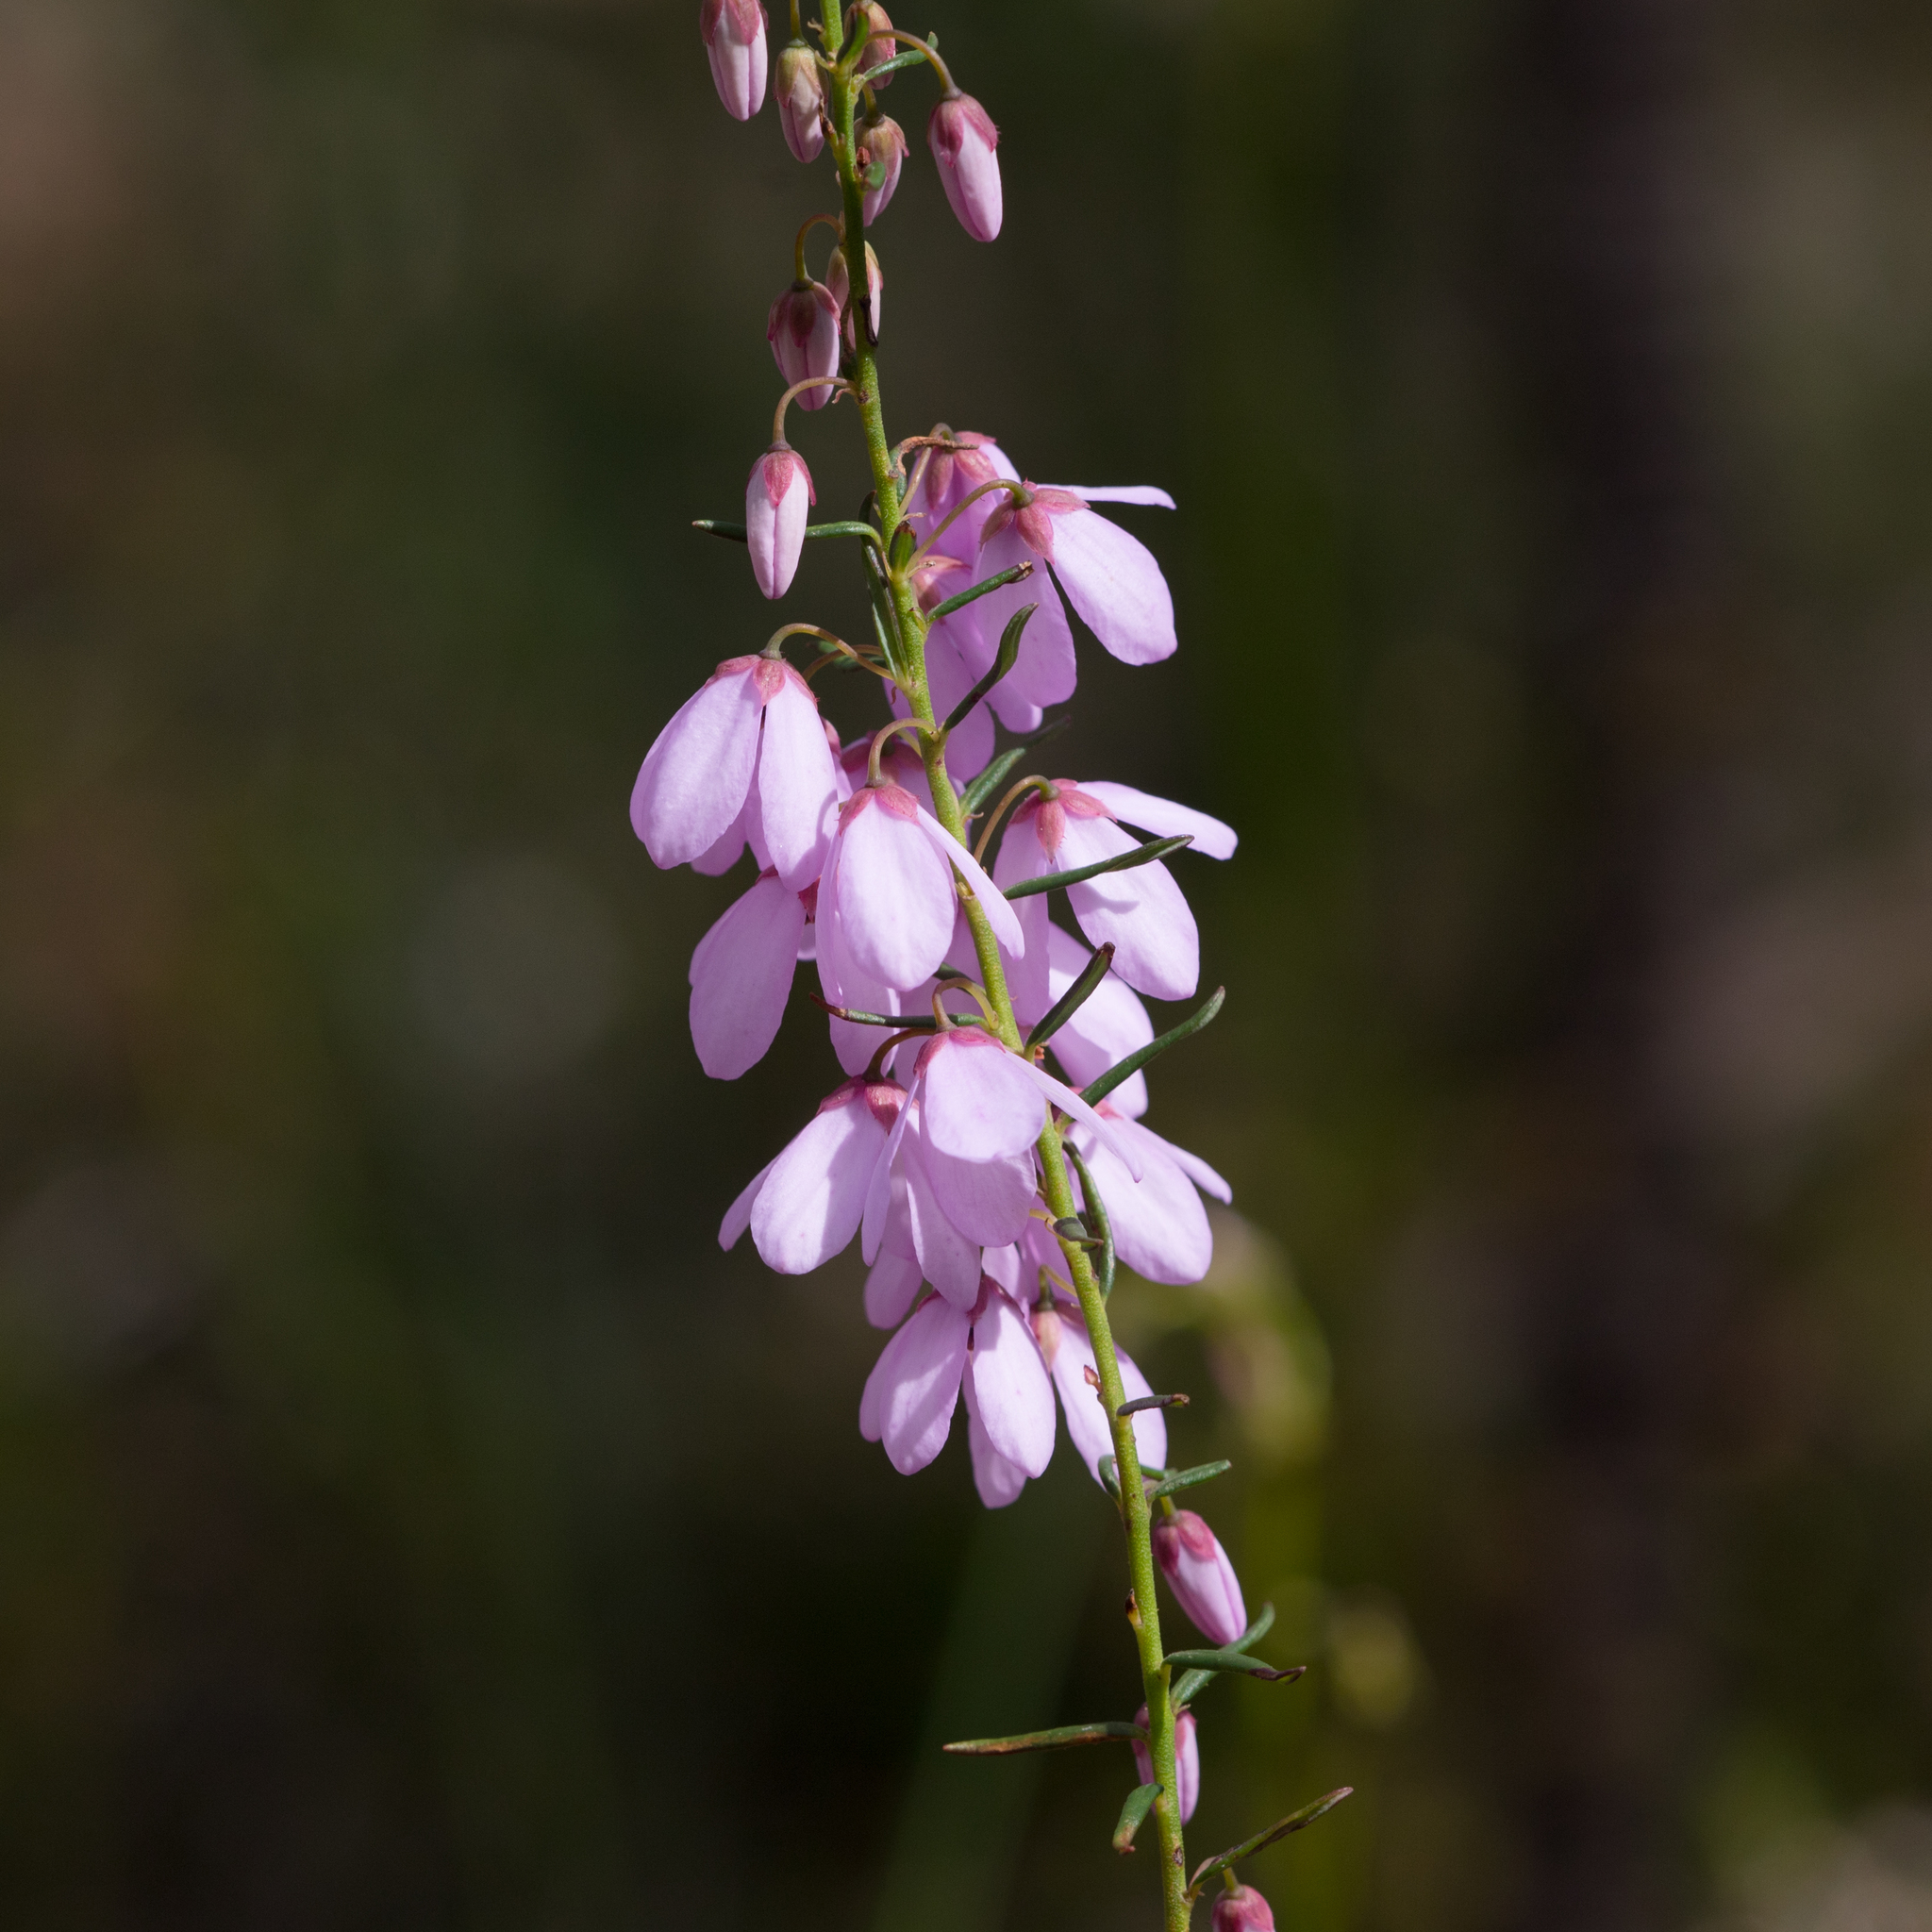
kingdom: Plantae
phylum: Tracheophyta
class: Magnoliopsida
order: Oxalidales
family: Elaeocarpaceae
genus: Tetratheca
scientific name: Tetratheca pilosa
